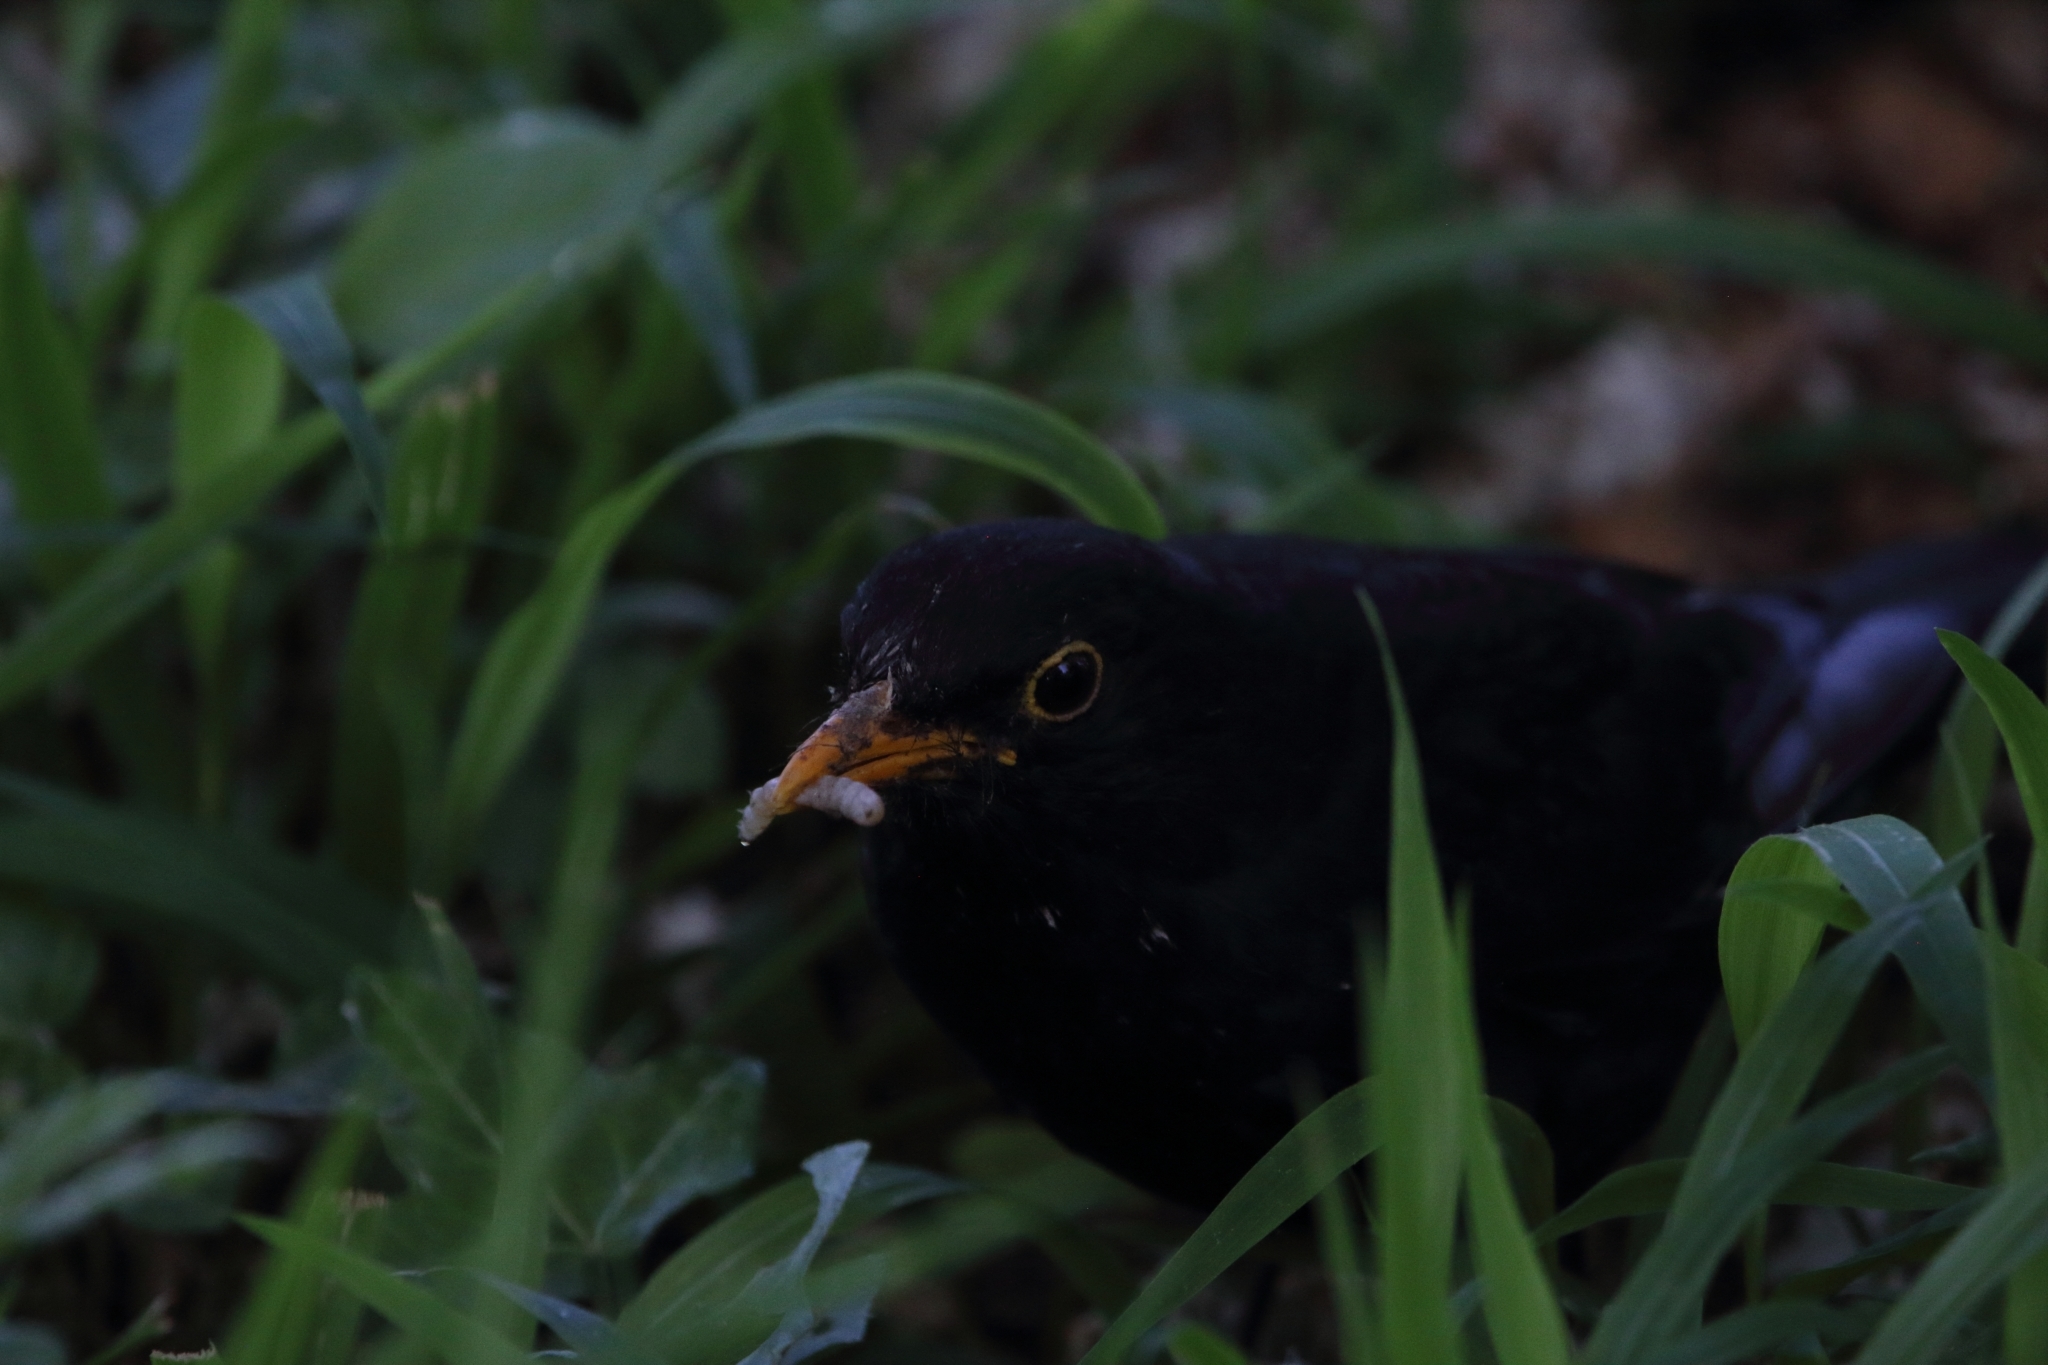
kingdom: Animalia
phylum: Chordata
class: Aves
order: Passeriformes
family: Turdidae
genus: Turdus
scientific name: Turdus merula
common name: Common blackbird
